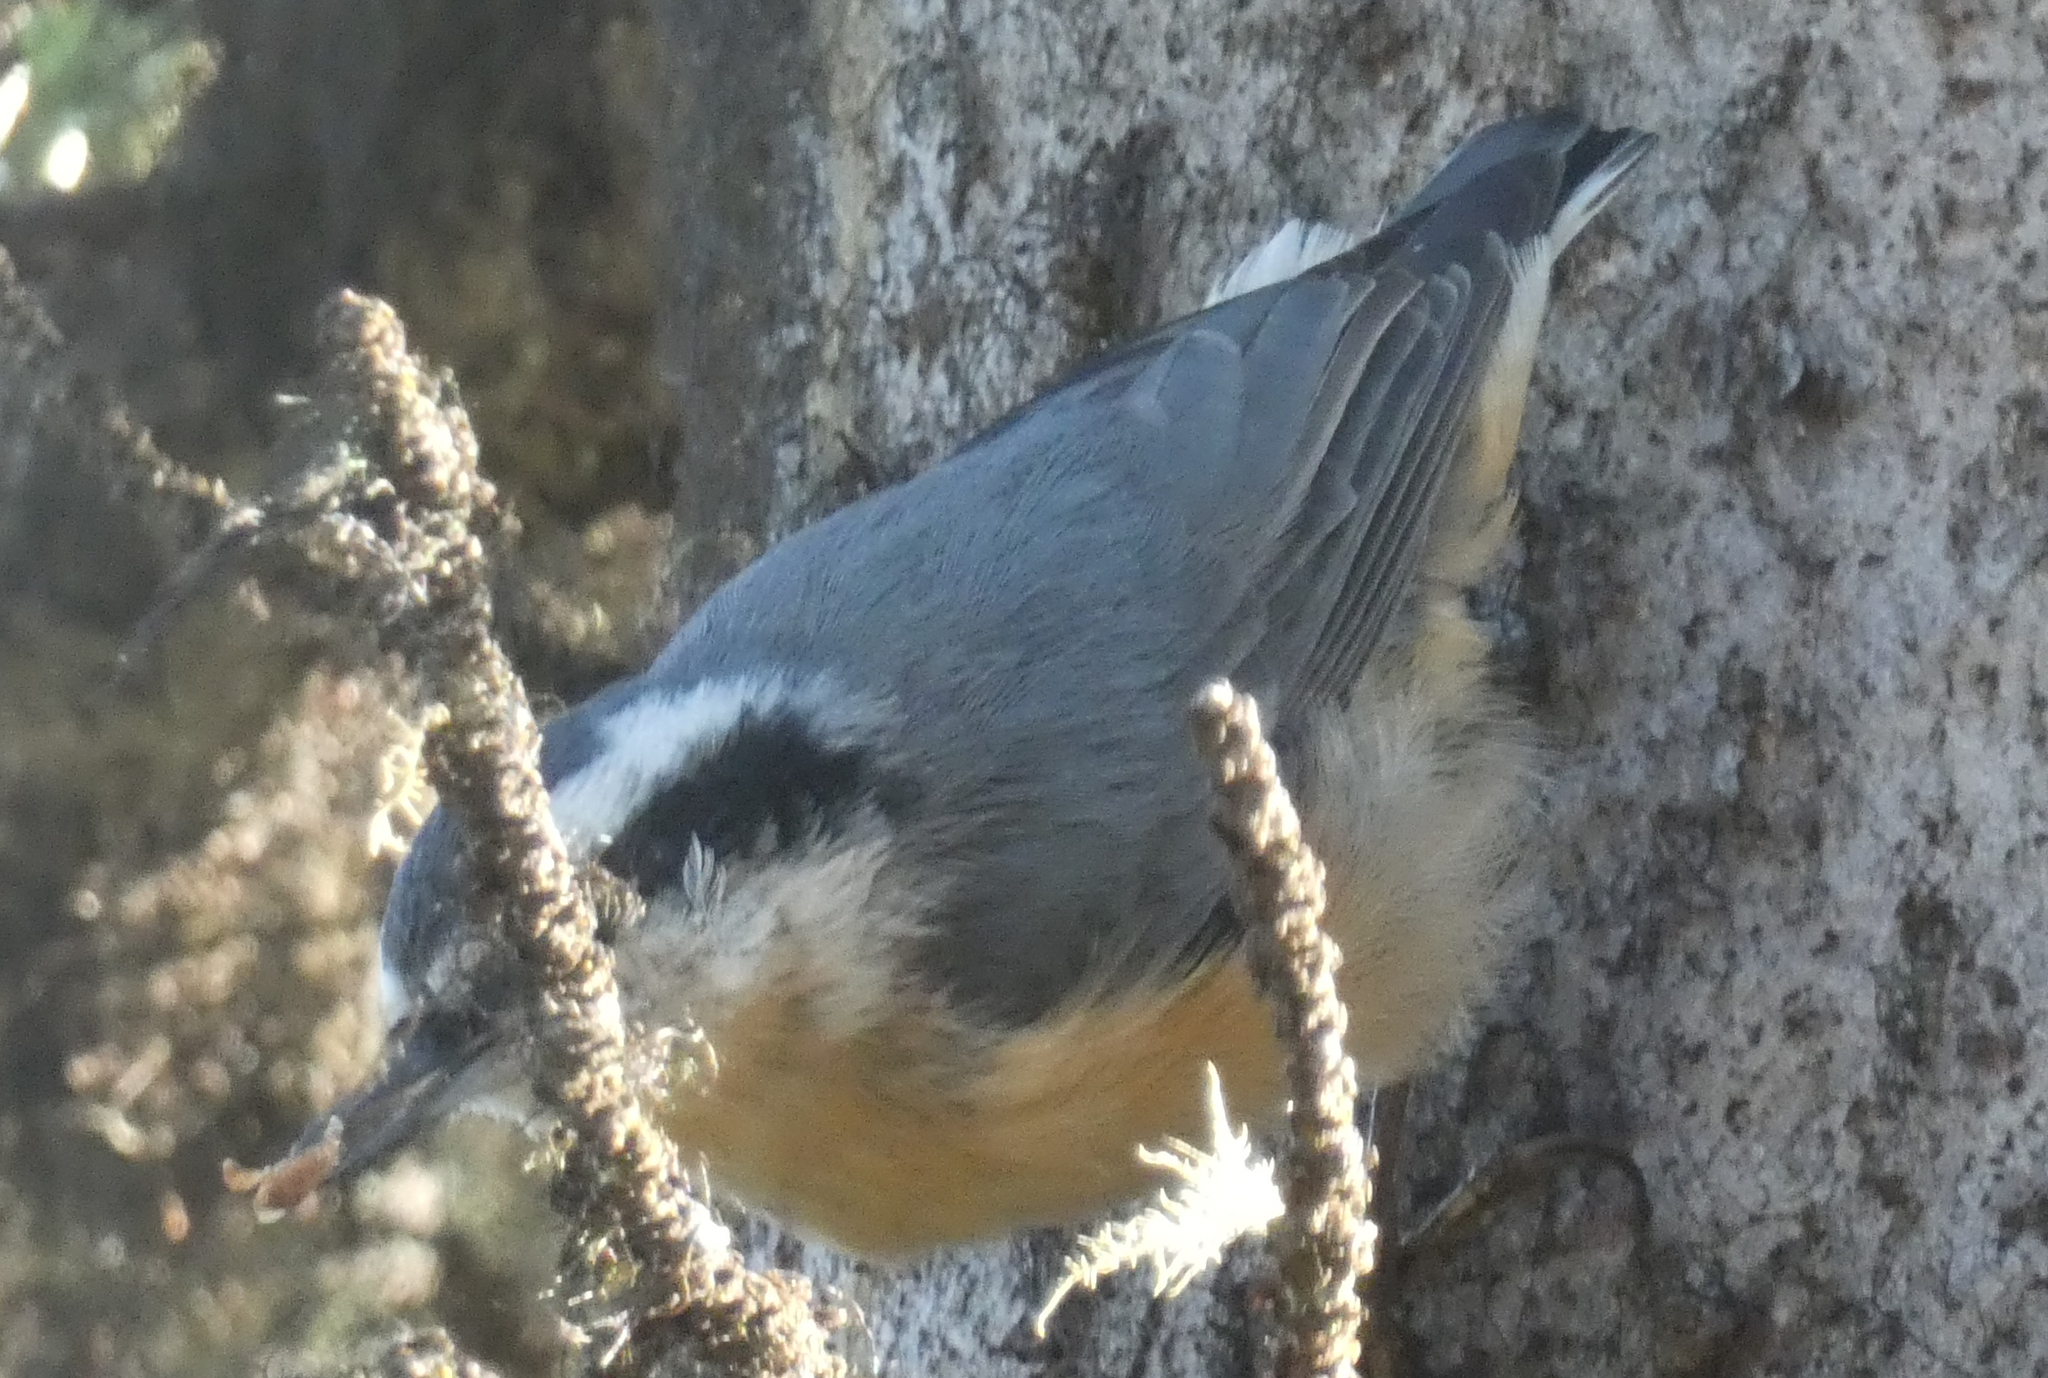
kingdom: Animalia
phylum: Chordata
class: Aves
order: Passeriformes
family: Sittidae
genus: Sitta
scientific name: Sitta canadensis
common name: Red-breasted nuthatch
